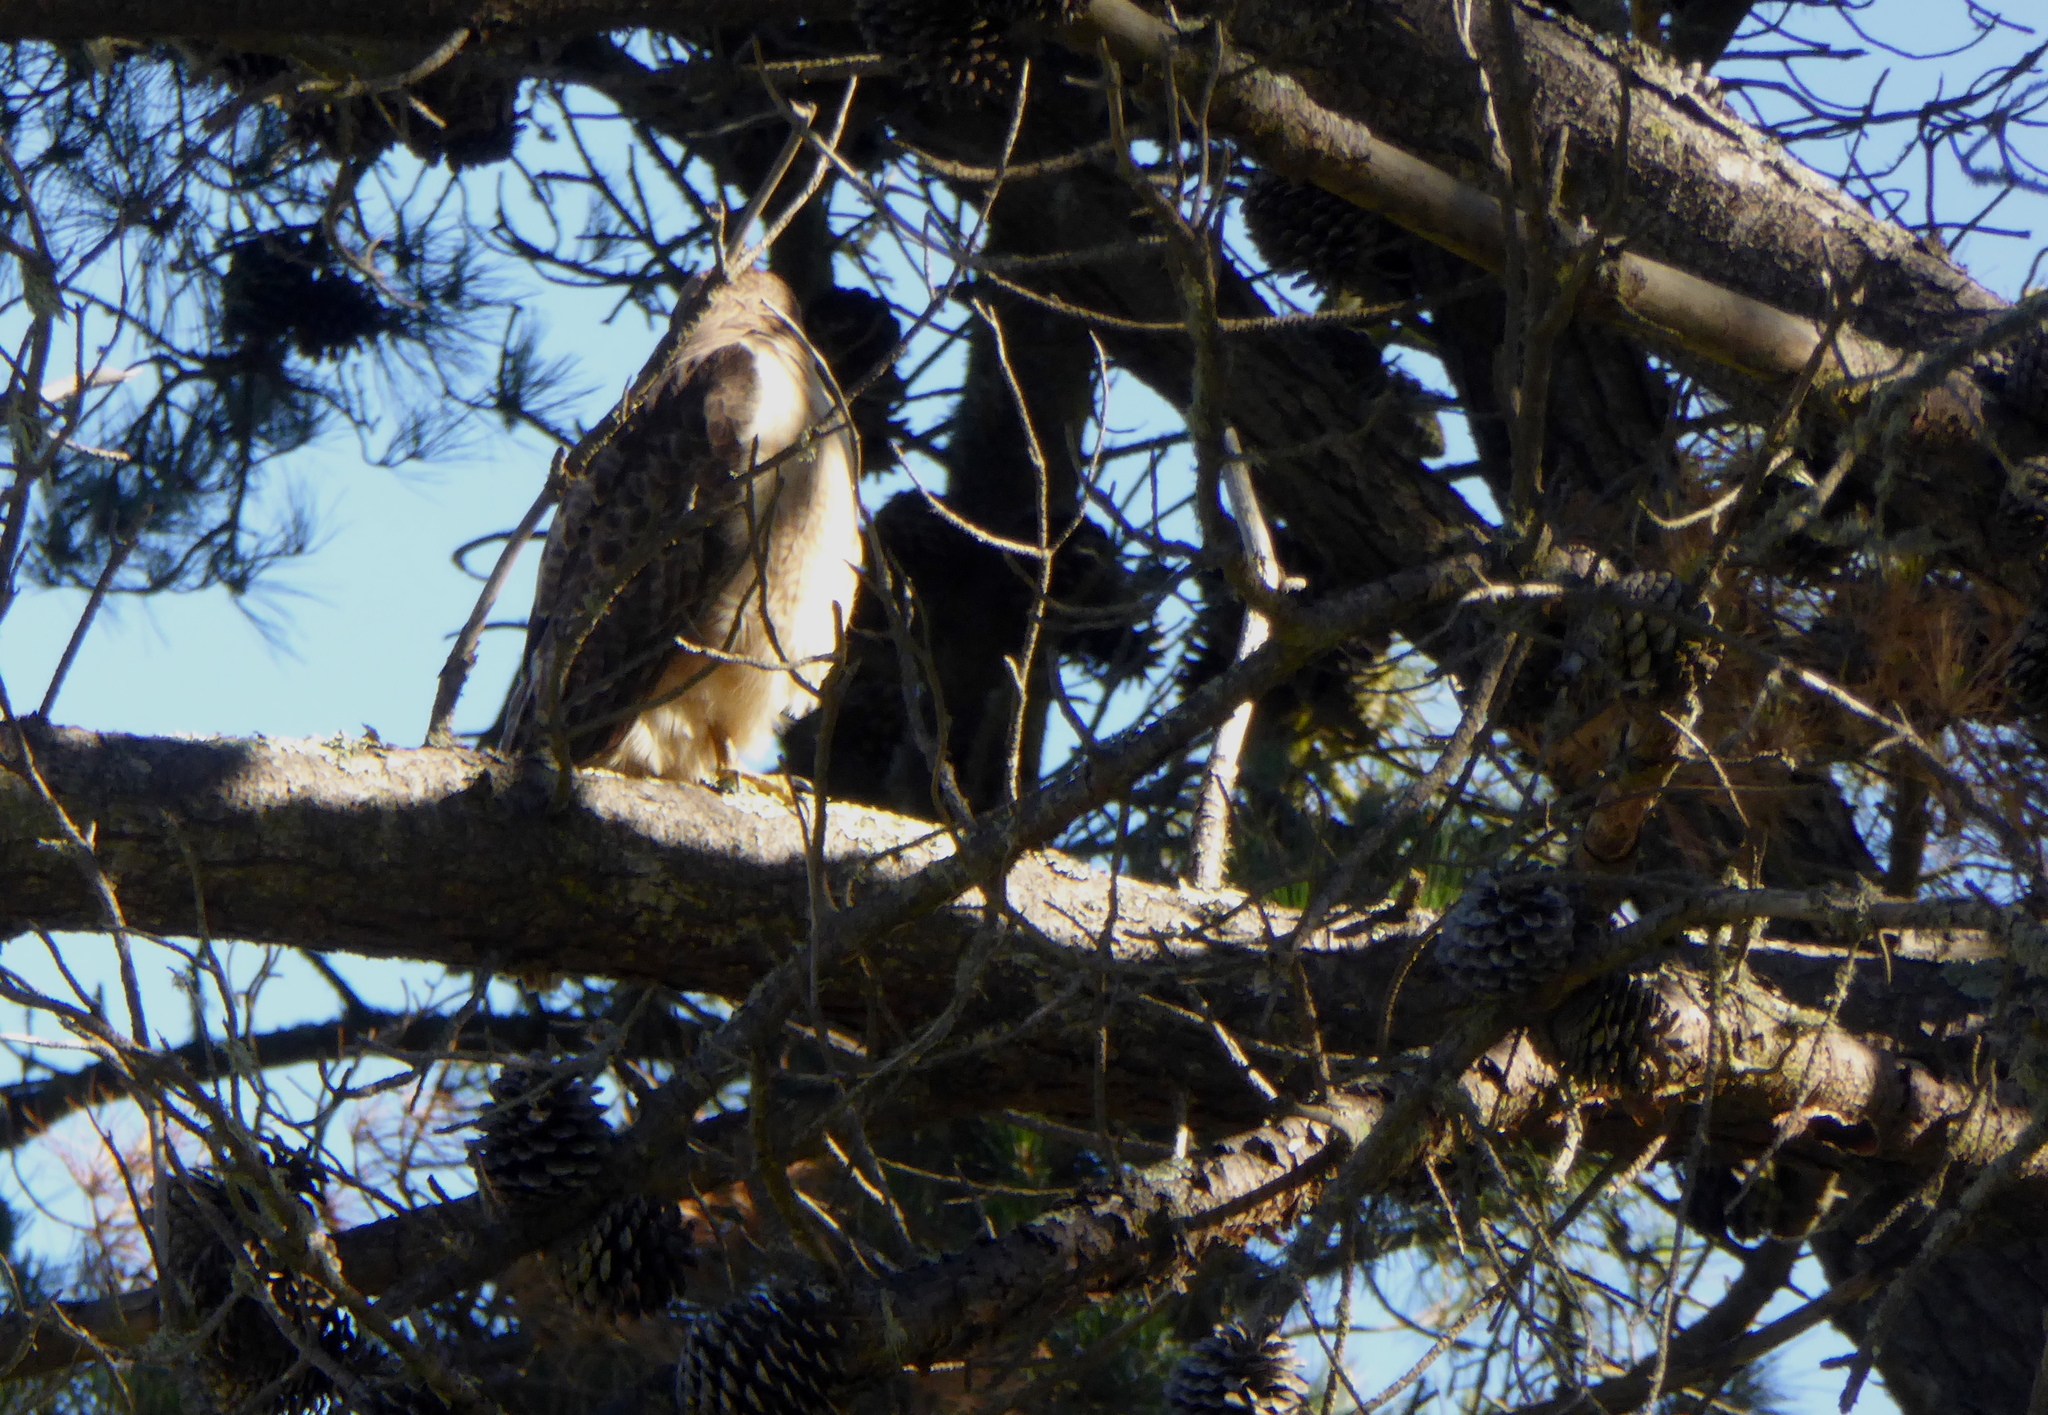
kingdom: Animalia
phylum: Chordata
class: Aves
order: Accipitriformes
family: Accipitridae
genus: Buteo
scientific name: Buteo jamaicensis
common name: Red-tailed hawk
